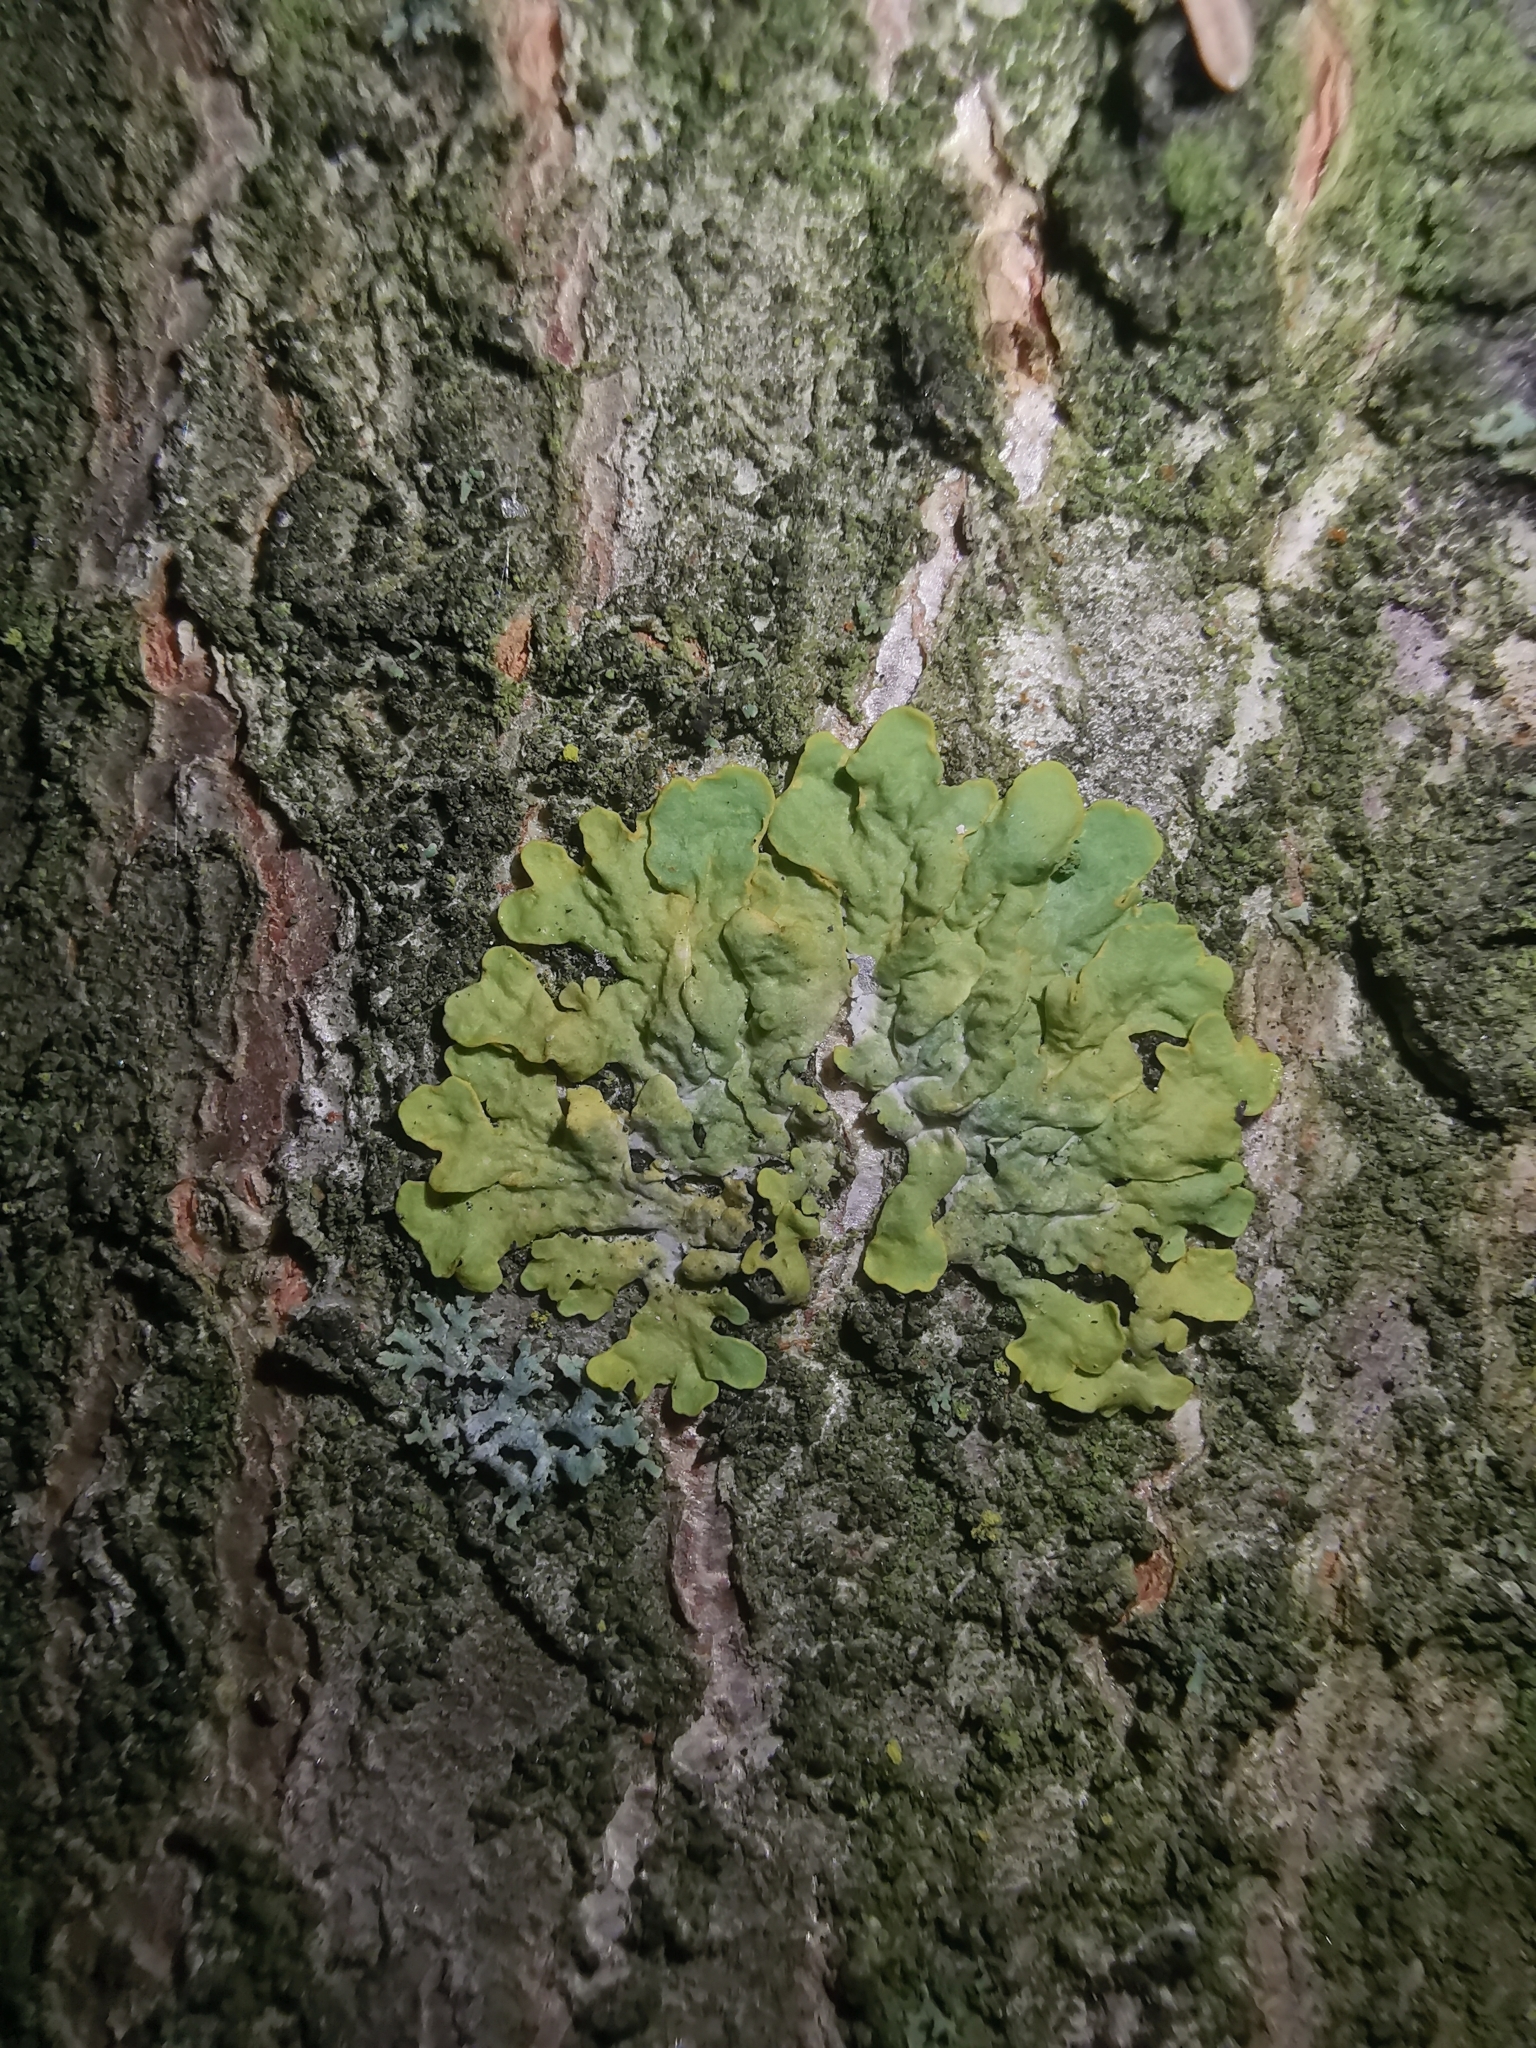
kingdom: Fungi
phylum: Ascomycota
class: Lecanoromycetes
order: Teloschistales
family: Teloschistaceae
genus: Xanthoria
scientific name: Xanthoria parietina
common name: Common orange lichen
